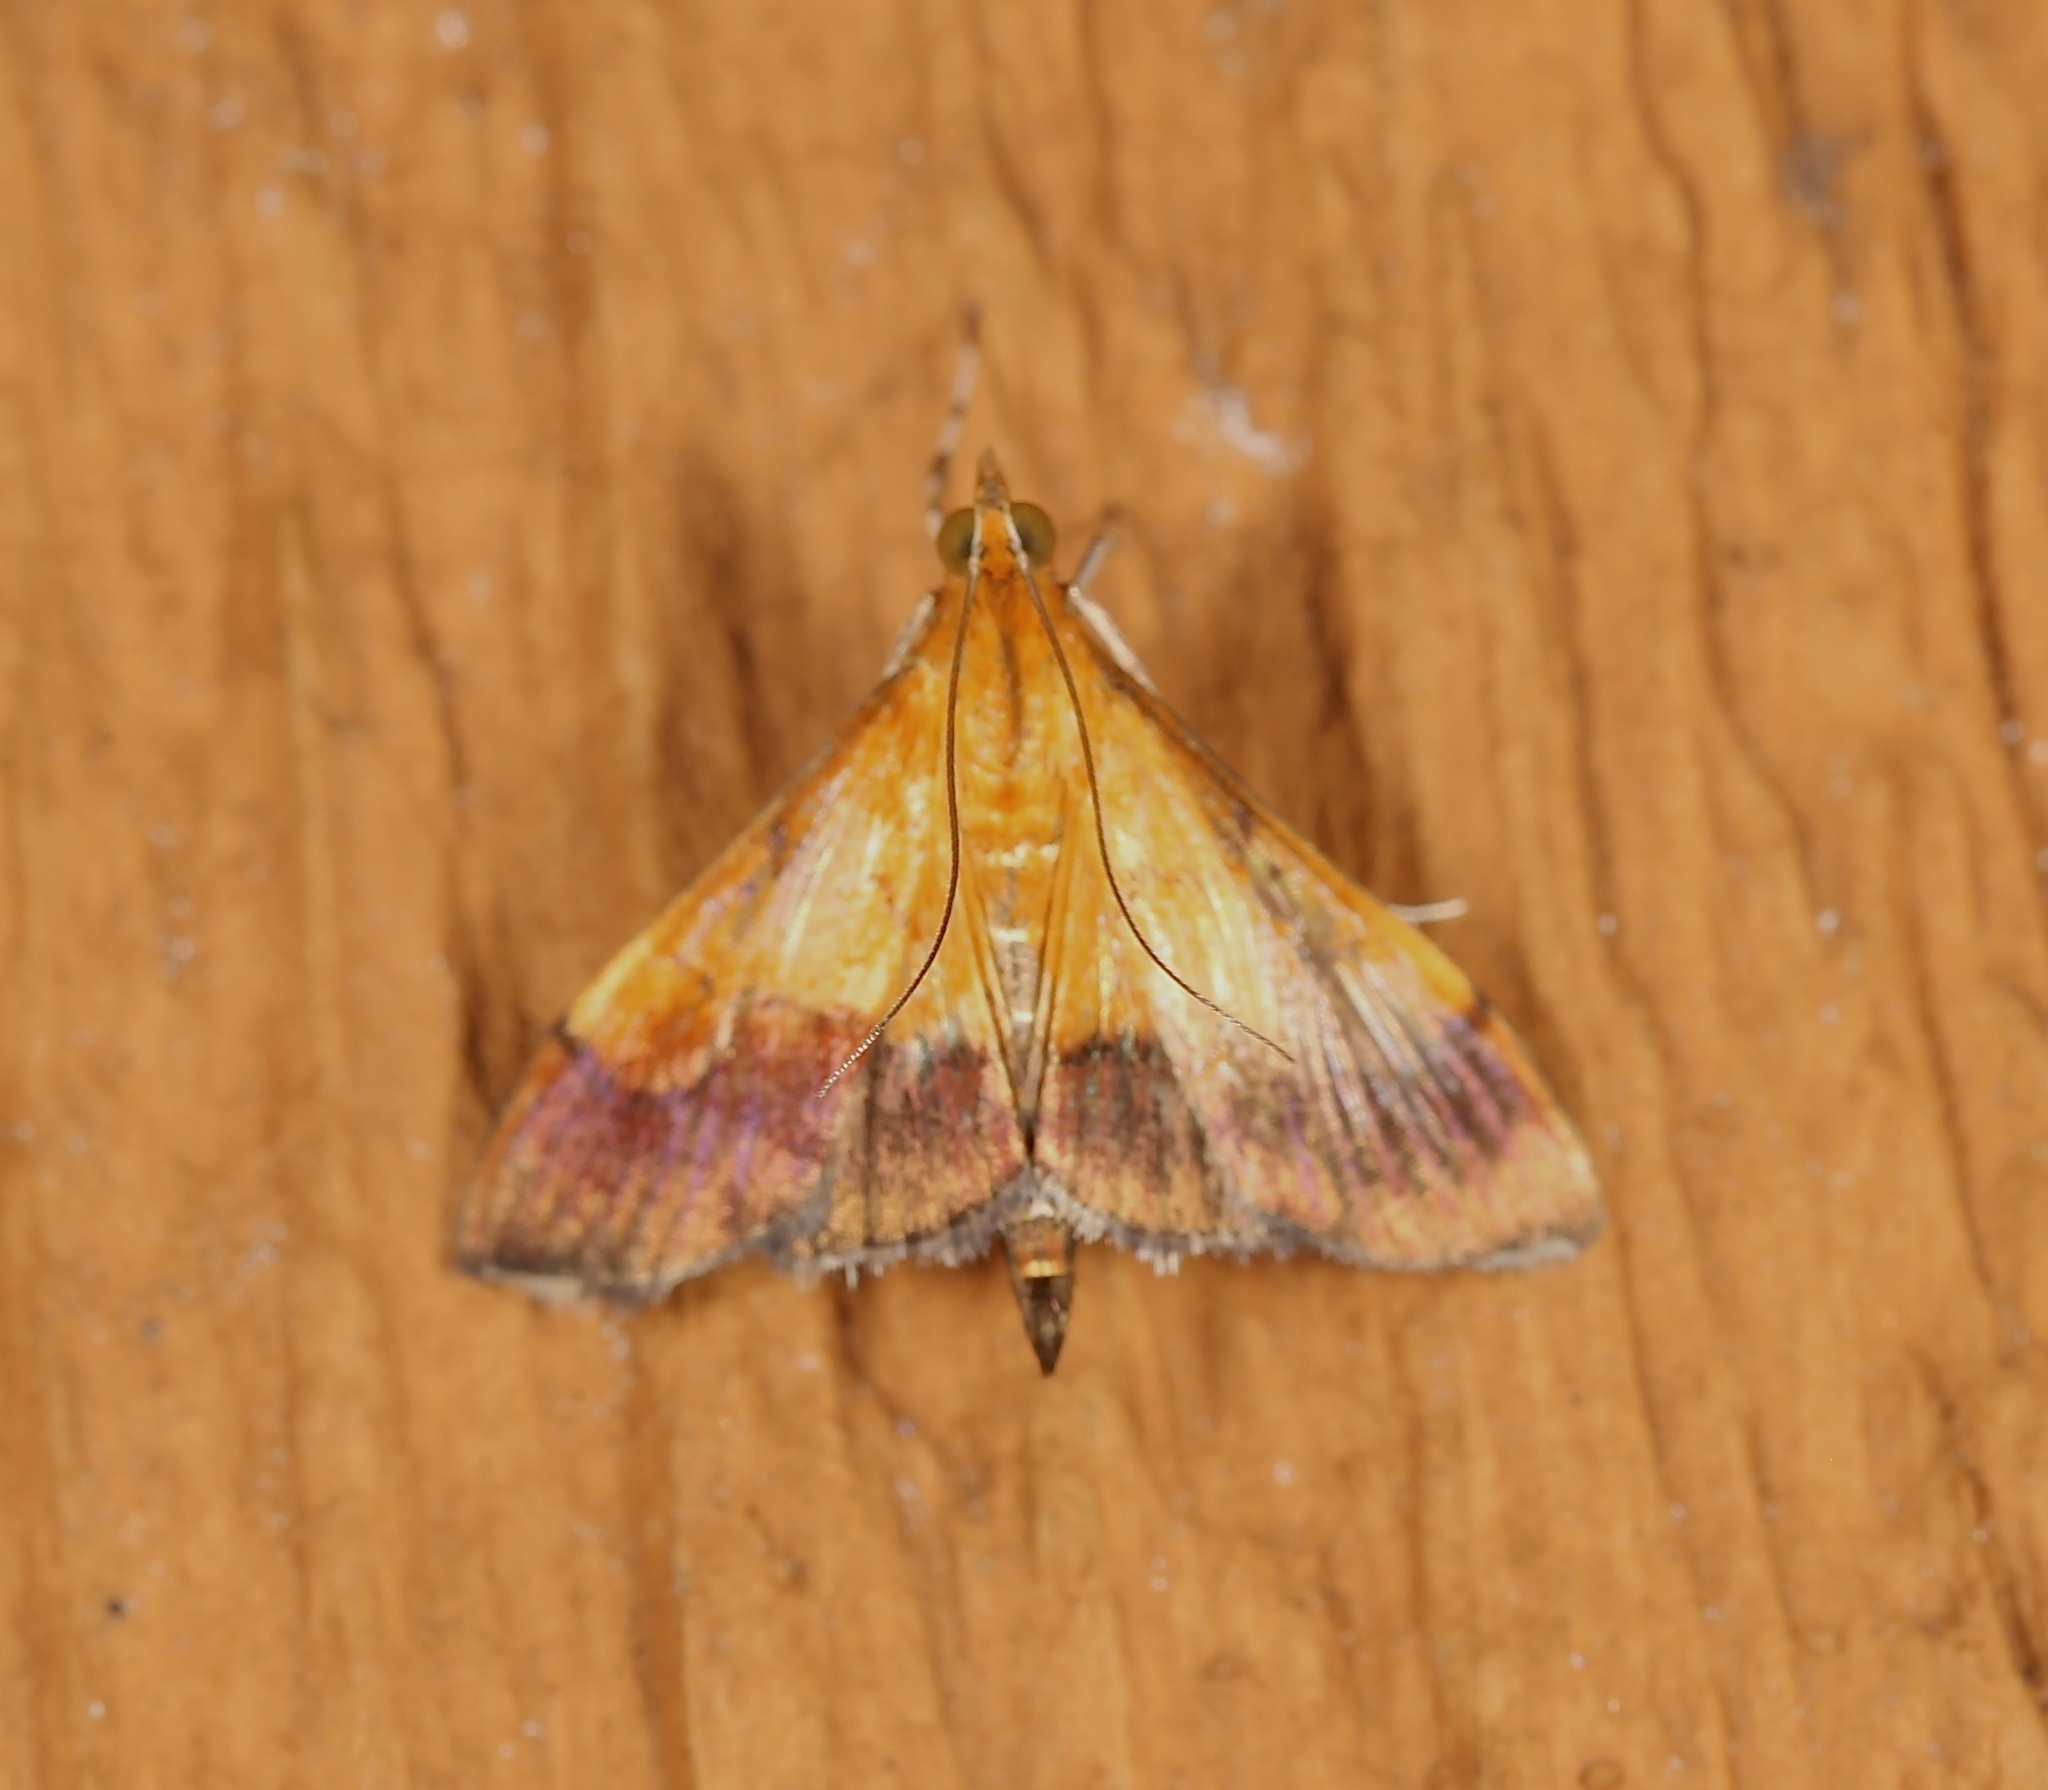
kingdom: Animalia
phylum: Arthropoda
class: Insecta
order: Lepidoptera
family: Crambidae
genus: Pyrausta
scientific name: Pyrausta bicoloralis
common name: Bicolored pyrausta moth
